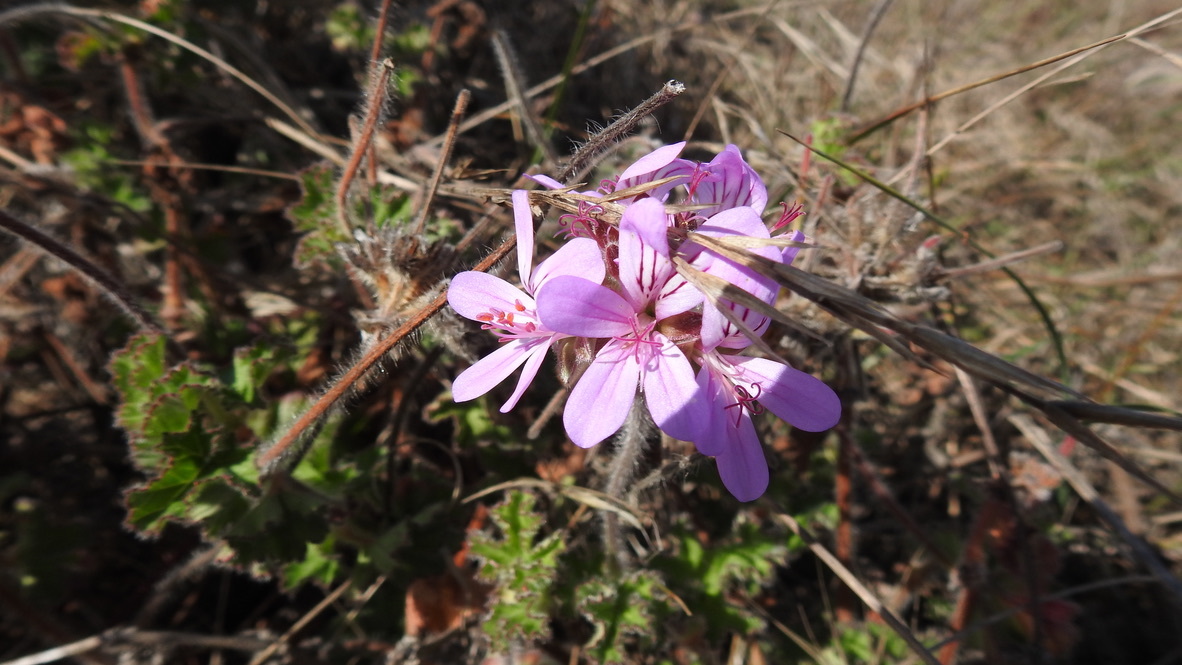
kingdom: Plantae
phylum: Tracheophyta
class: Magnoliopsida
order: Geraniales
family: Geraniaceae
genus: Pelargonium
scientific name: Pelargonium capitatum
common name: Rose scented geranium
